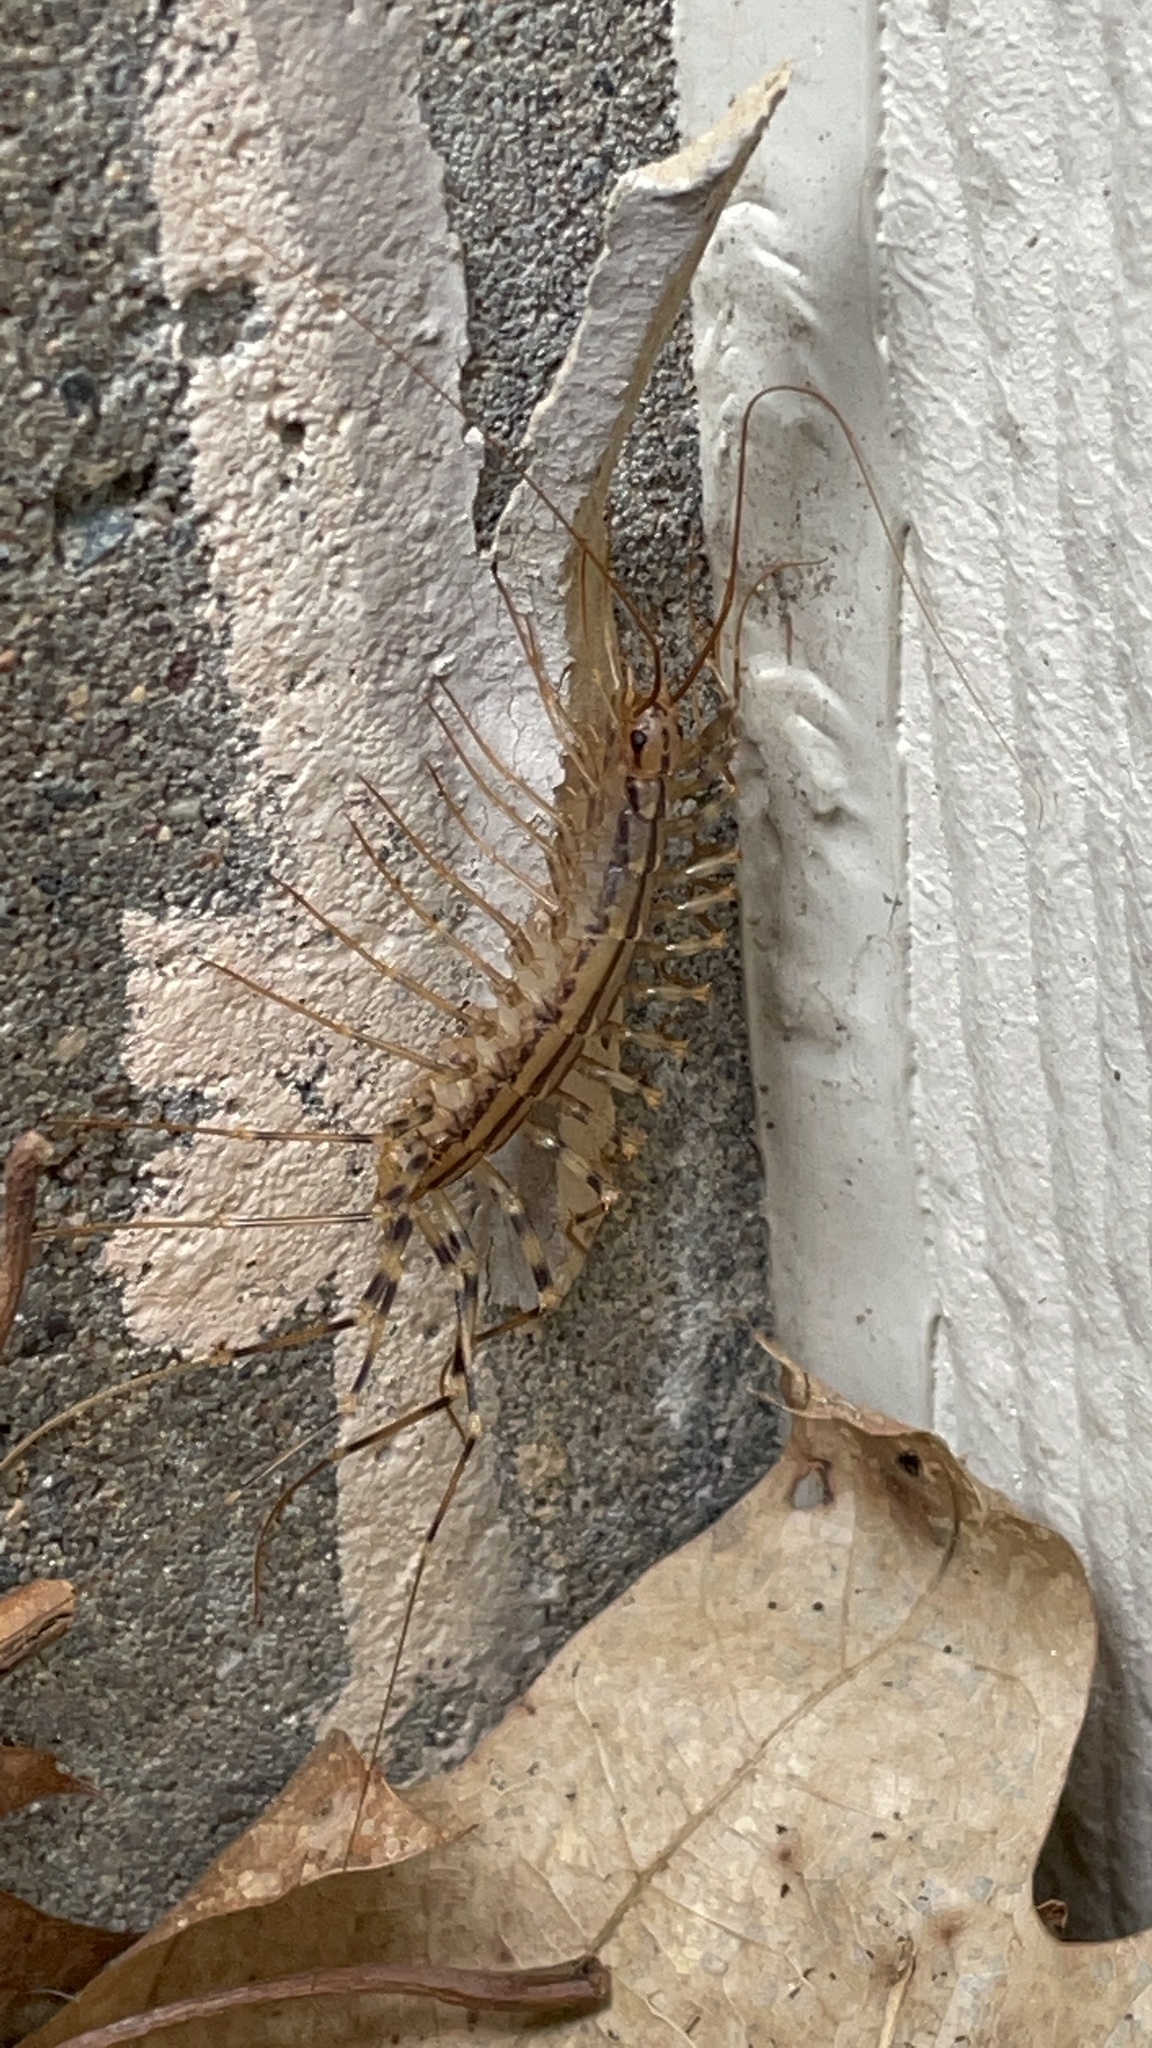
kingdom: Animalia
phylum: Arthropoda
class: Chilopoda
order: Scutigeromorpha
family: Scutigeridae
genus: Scutigera
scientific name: Scutigera coleoptrata
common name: House centipede
